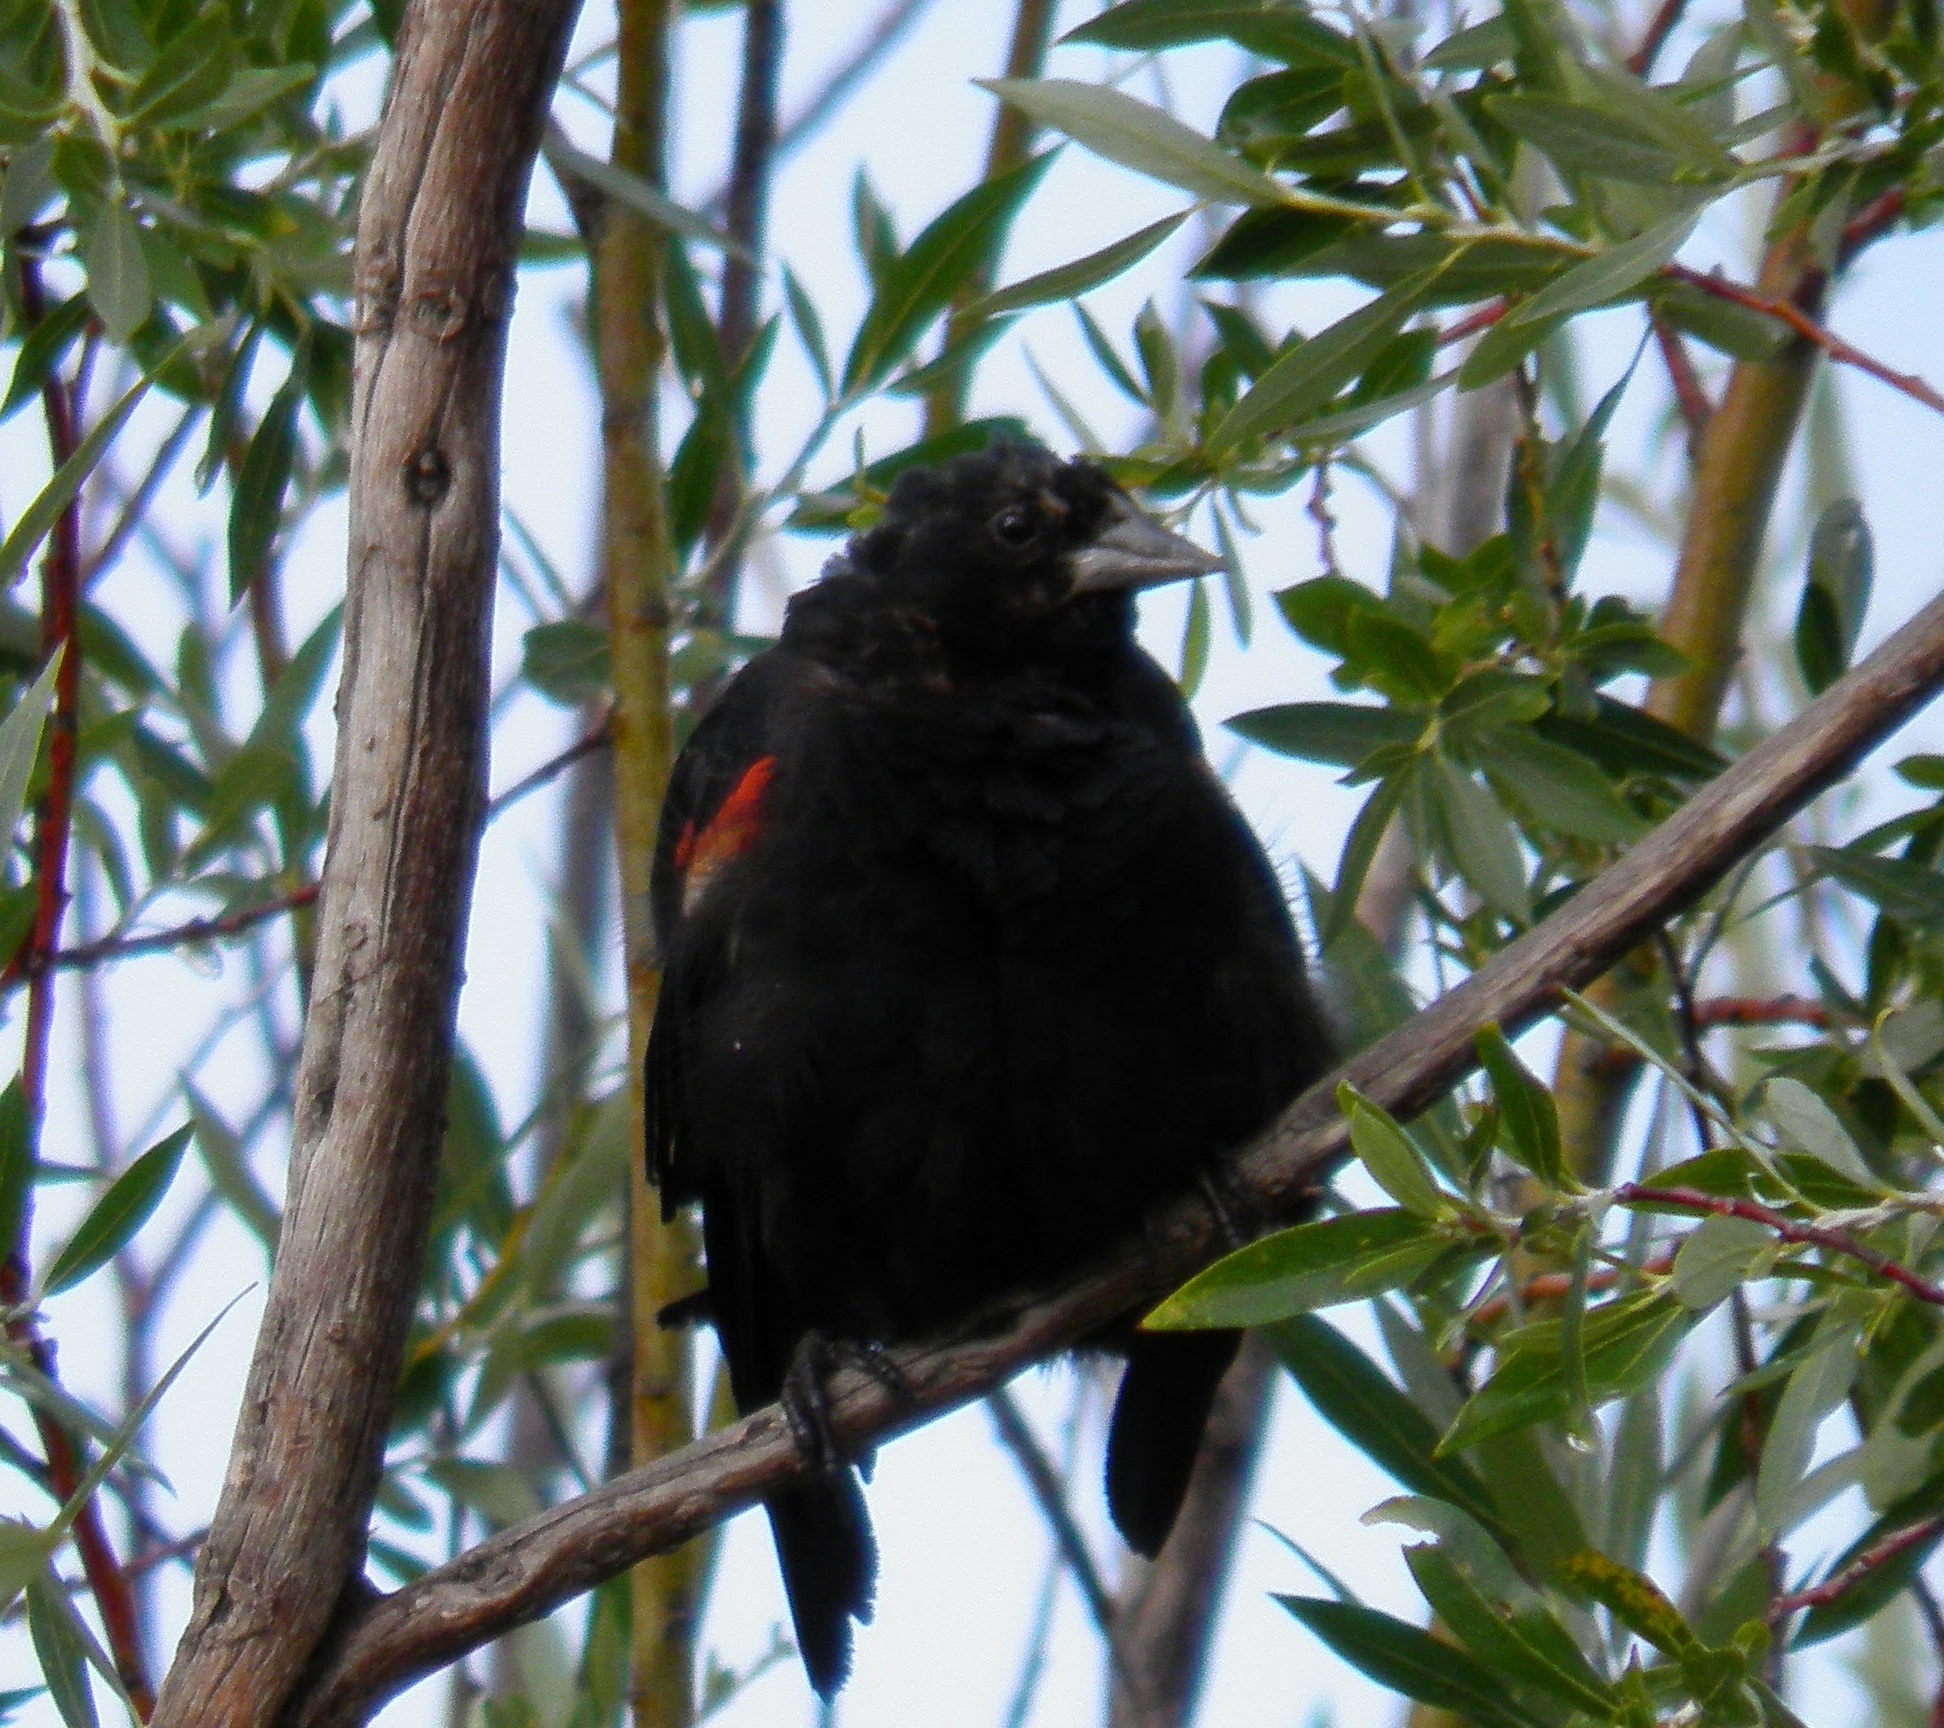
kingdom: Animalia
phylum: Chordata
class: Aves
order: Passeriformes
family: Icteridae
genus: Agelaius
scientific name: Agelaius phoeniceus
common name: Red-winged blackbird
